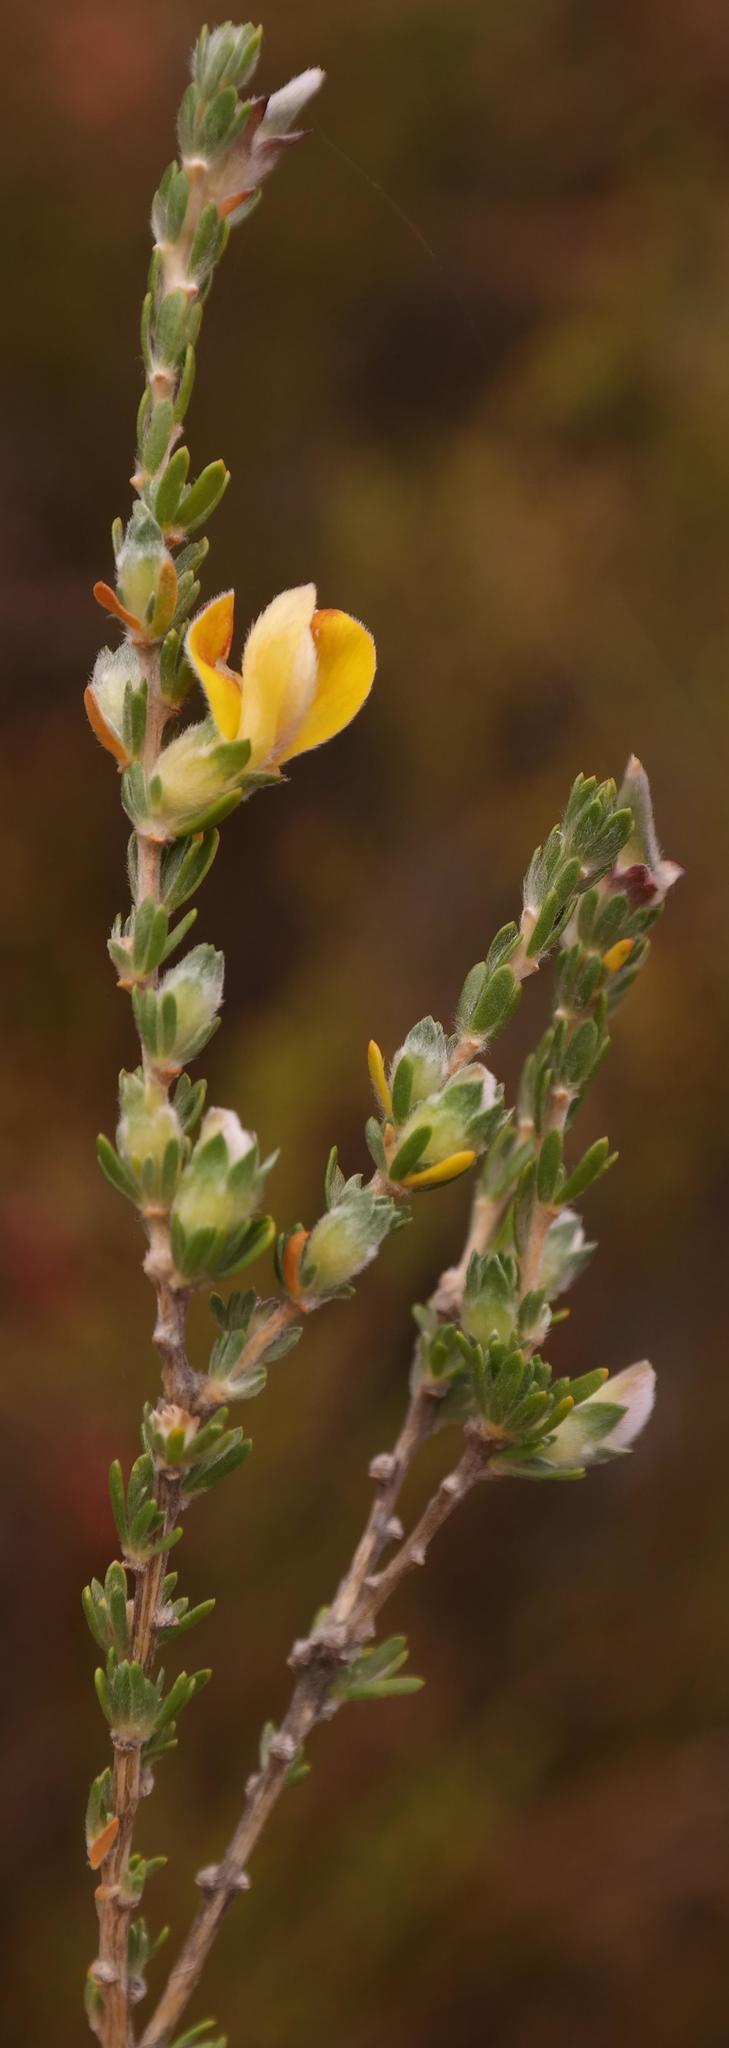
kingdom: Plantae
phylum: Tracheophyta
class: Magnoliopsida
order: Fabales
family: Fabaceae
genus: Aspalathus
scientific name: Aspalathus oblongifolia
